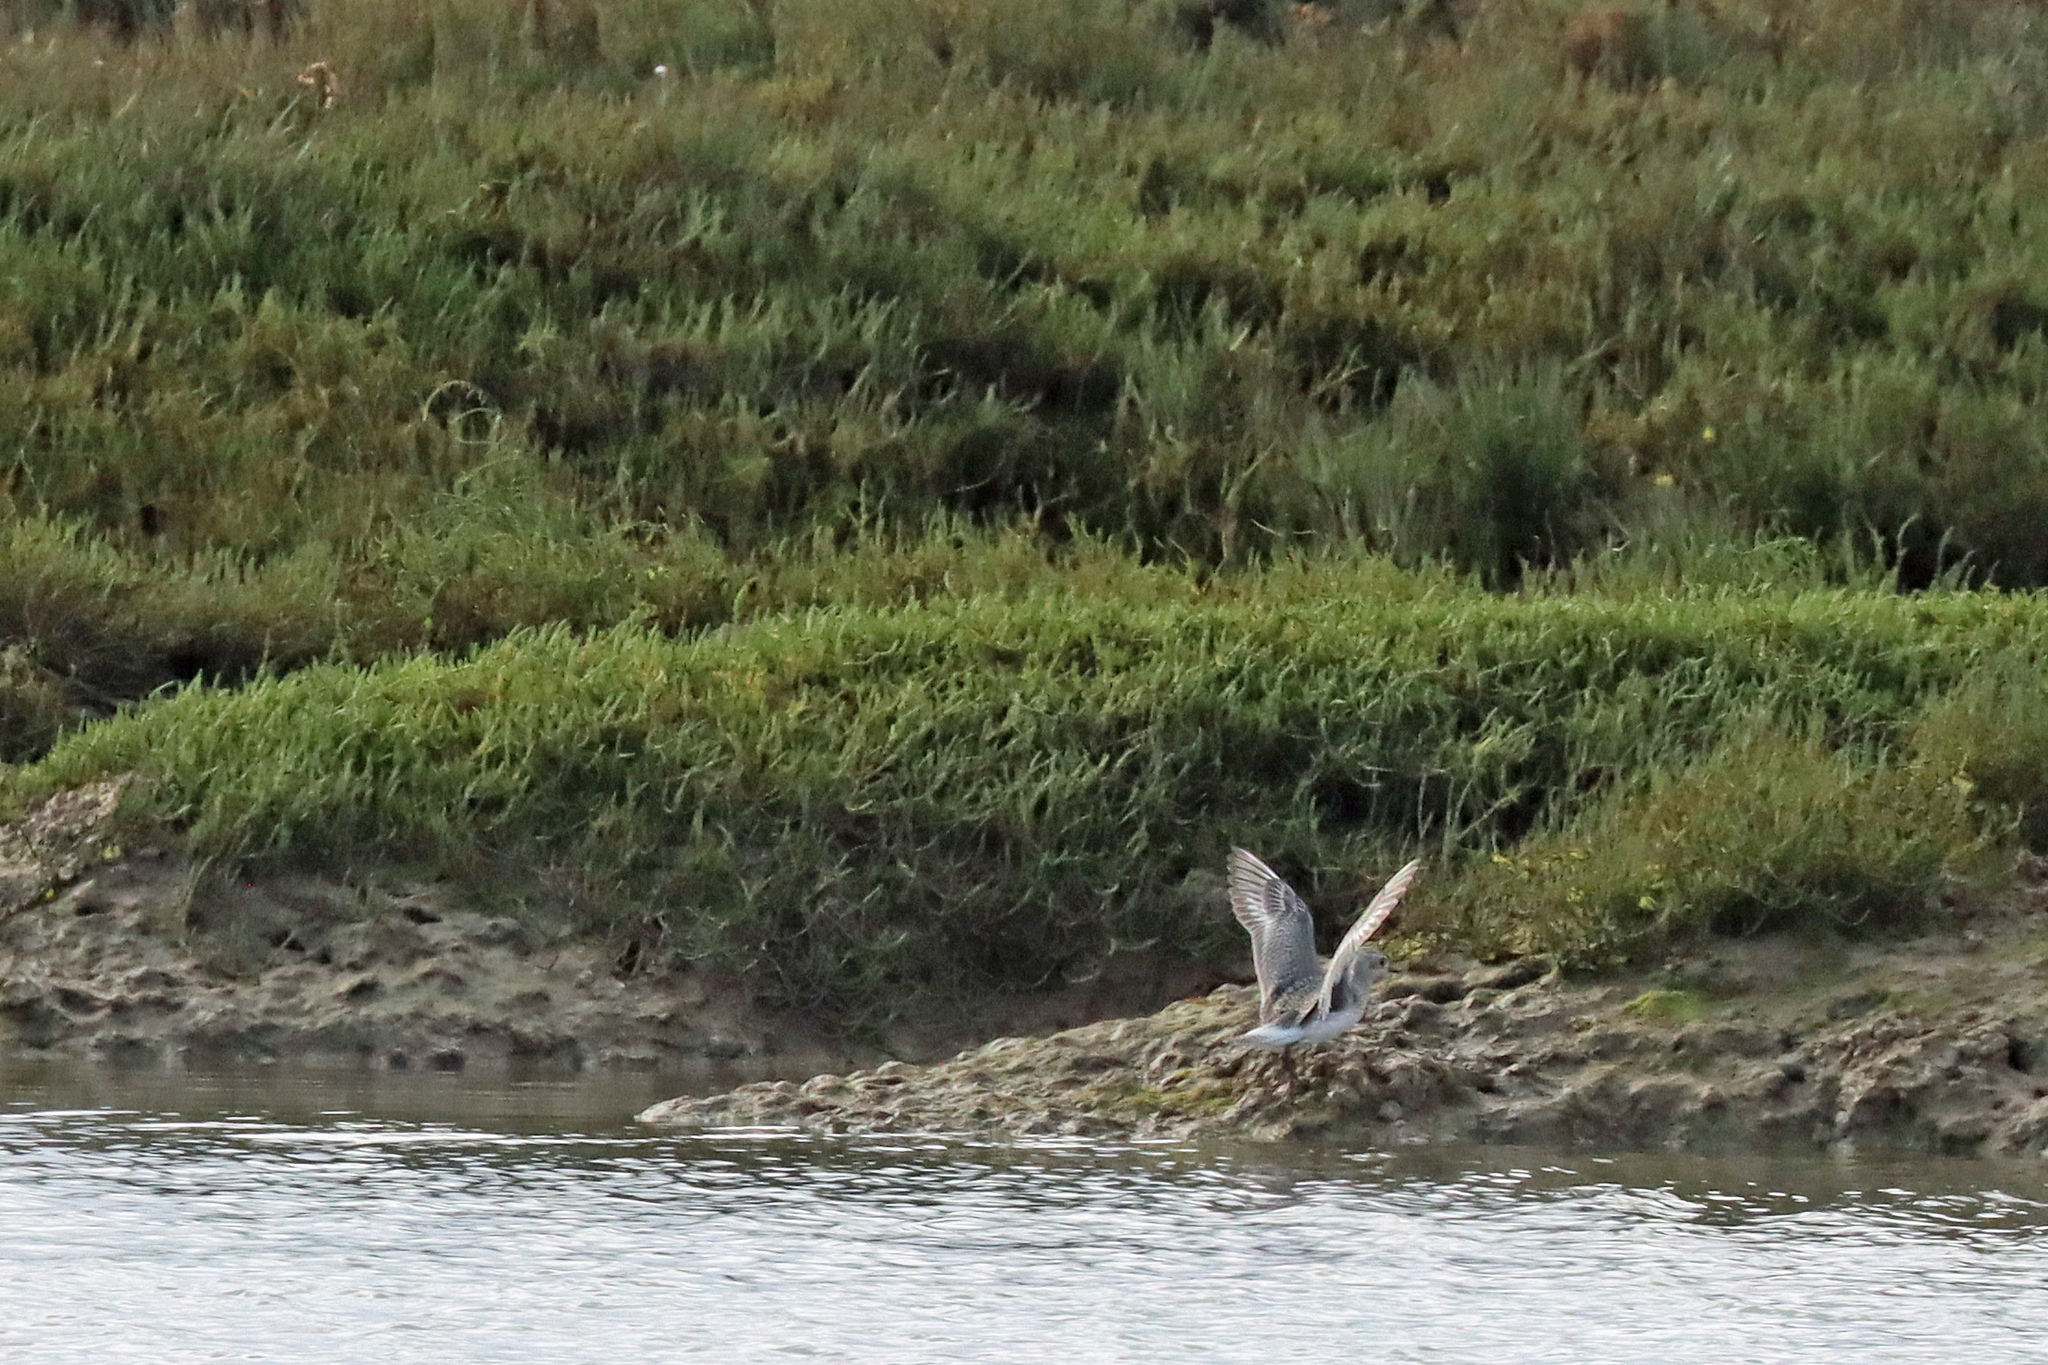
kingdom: Animalia
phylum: Chordata
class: Aves
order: Charadriiformes
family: Charadriidae
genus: Pluvialis
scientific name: Pluvialis squatarola
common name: Grey plover
